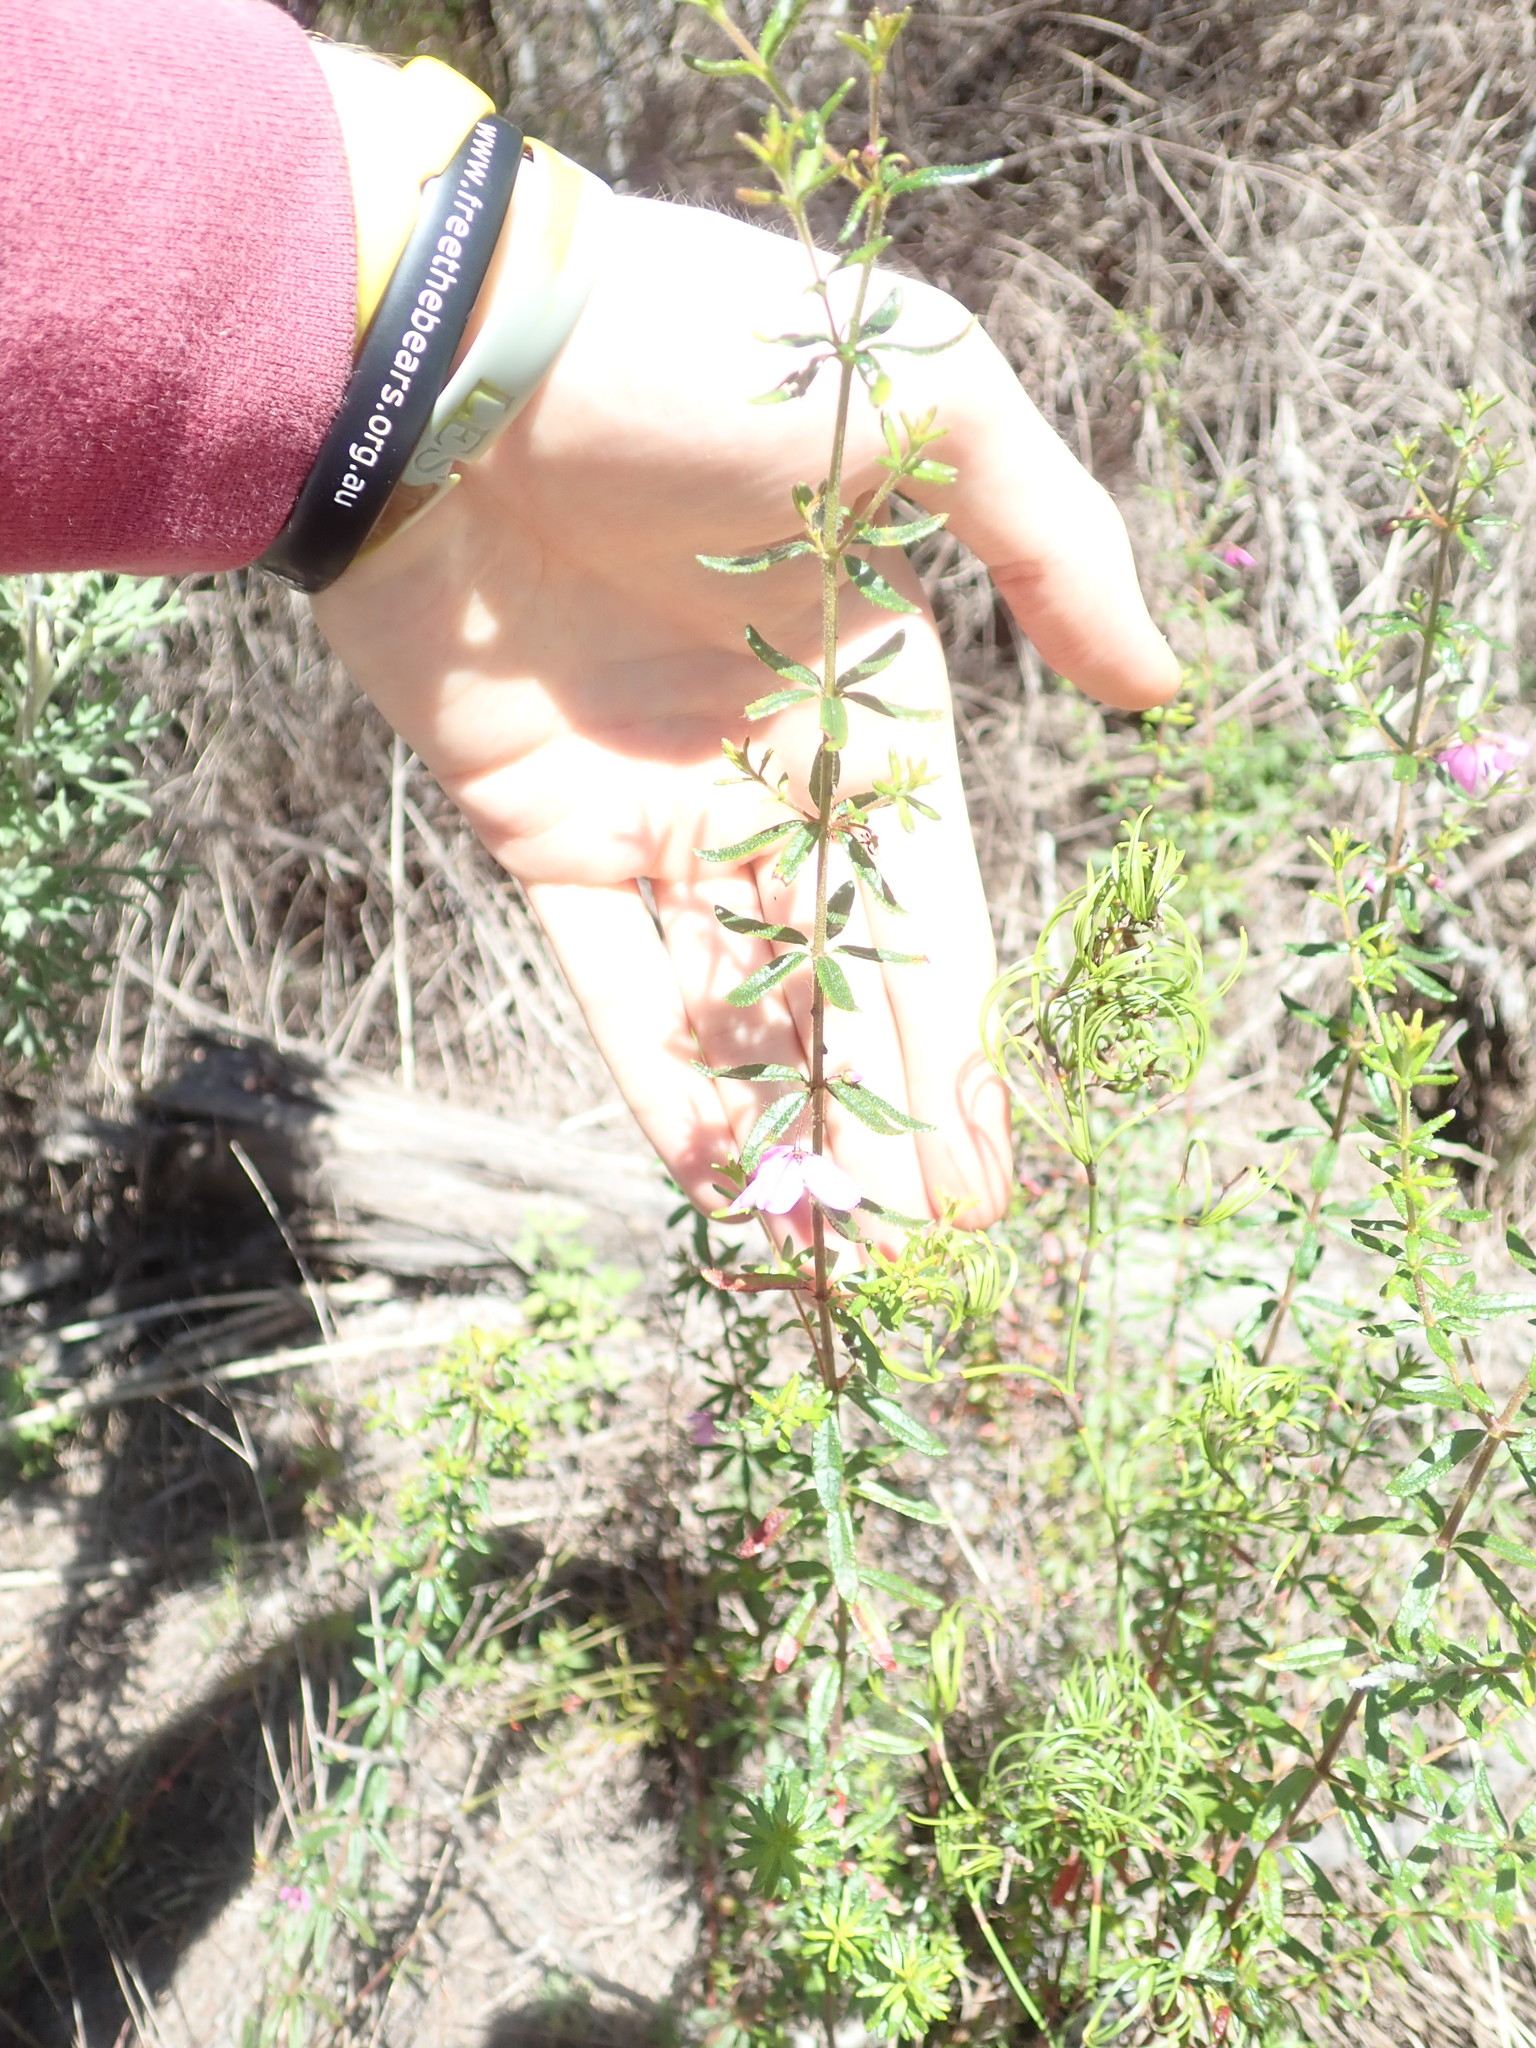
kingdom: Plantae
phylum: Tracheophyta
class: Magnoliopsida
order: Oxalidales
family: Elaeocarpaceae
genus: Tetratheca
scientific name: Tetratheca thymifolia
